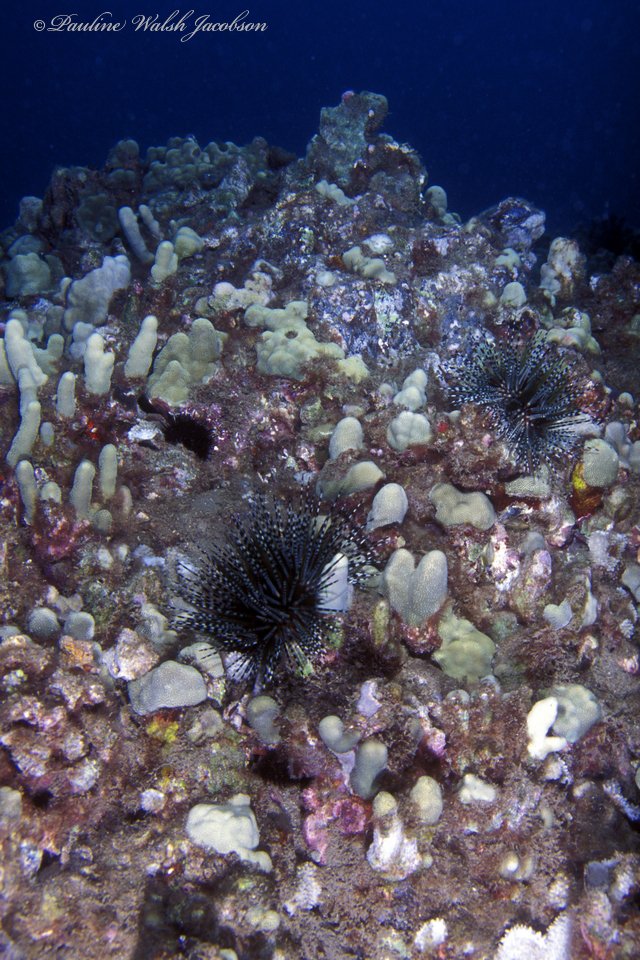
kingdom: Animalia
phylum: Echinodermata
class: Echinoidea
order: Diadematoida
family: Diadematidae
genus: Echinothrix
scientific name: Echinothrix calamaris
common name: Banded sea urchin
